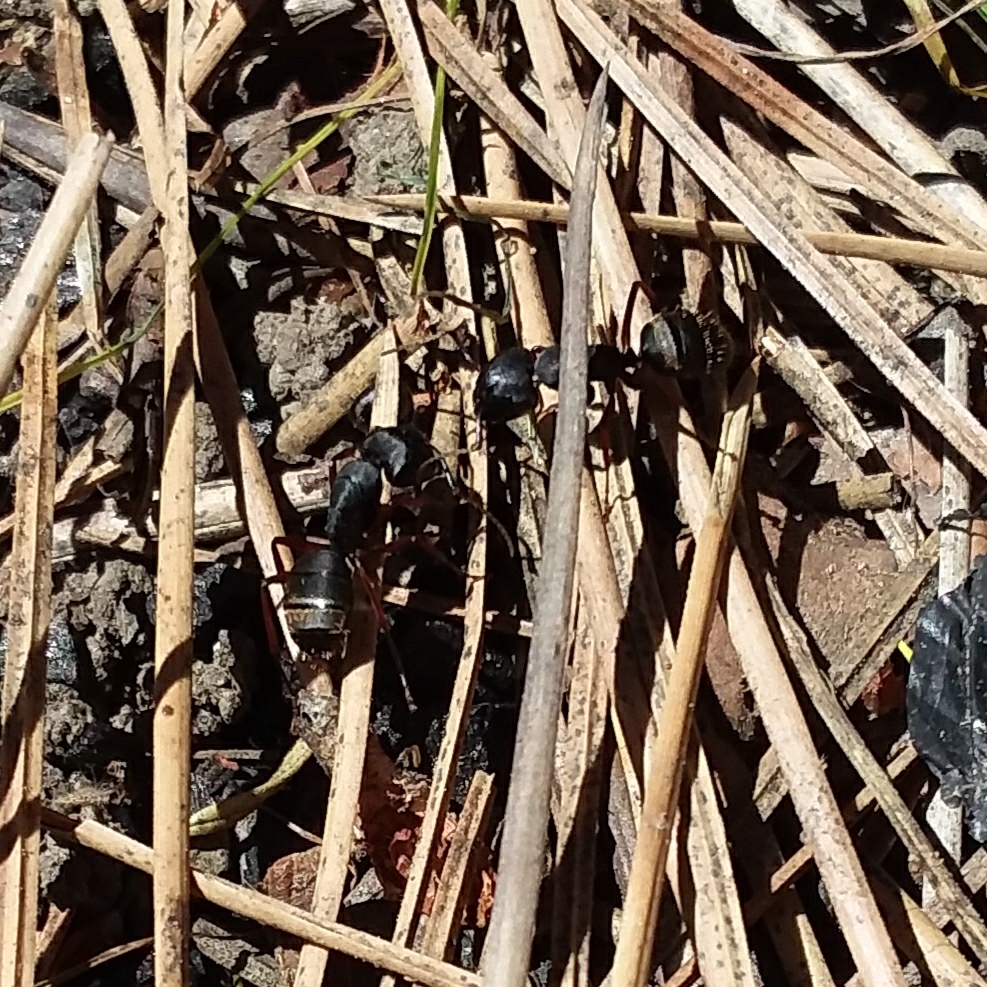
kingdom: Animalia
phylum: Arthropoda
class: Insecta
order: Hymenoptera
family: Formicidae
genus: Camponotus
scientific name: Camponotus modoc
